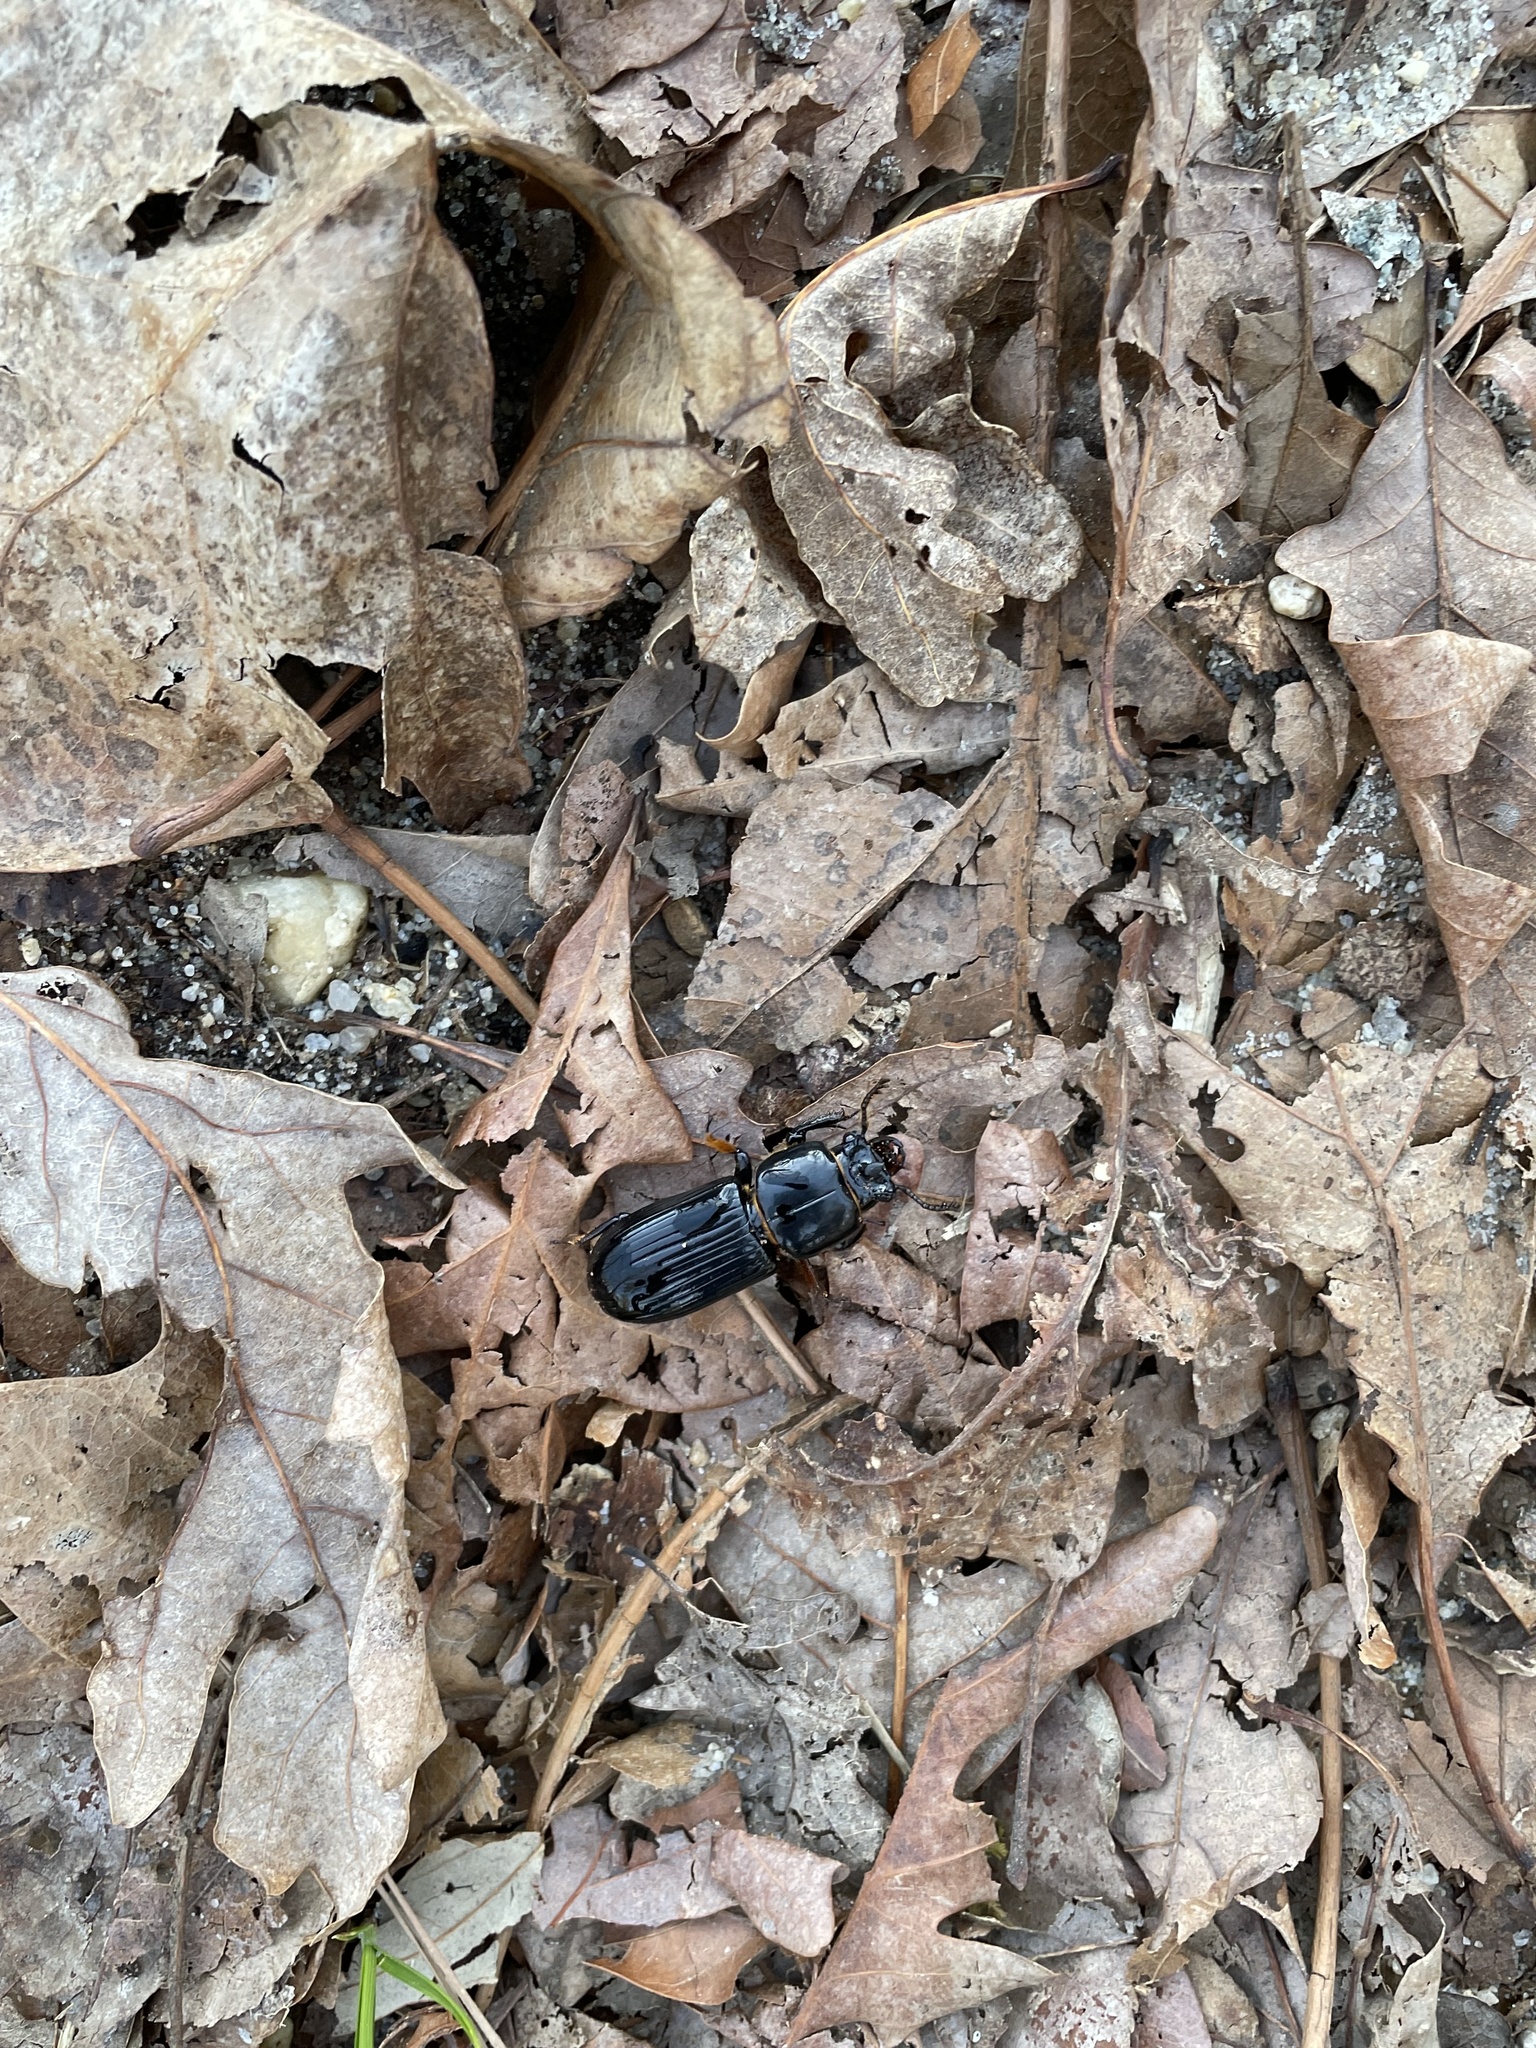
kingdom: Animalia
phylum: Arthropoda
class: Insecta
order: Coleoptera
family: Passalidae
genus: Odontotaenius
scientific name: Odontotaenius disjunctus
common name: Patent leather beetle
